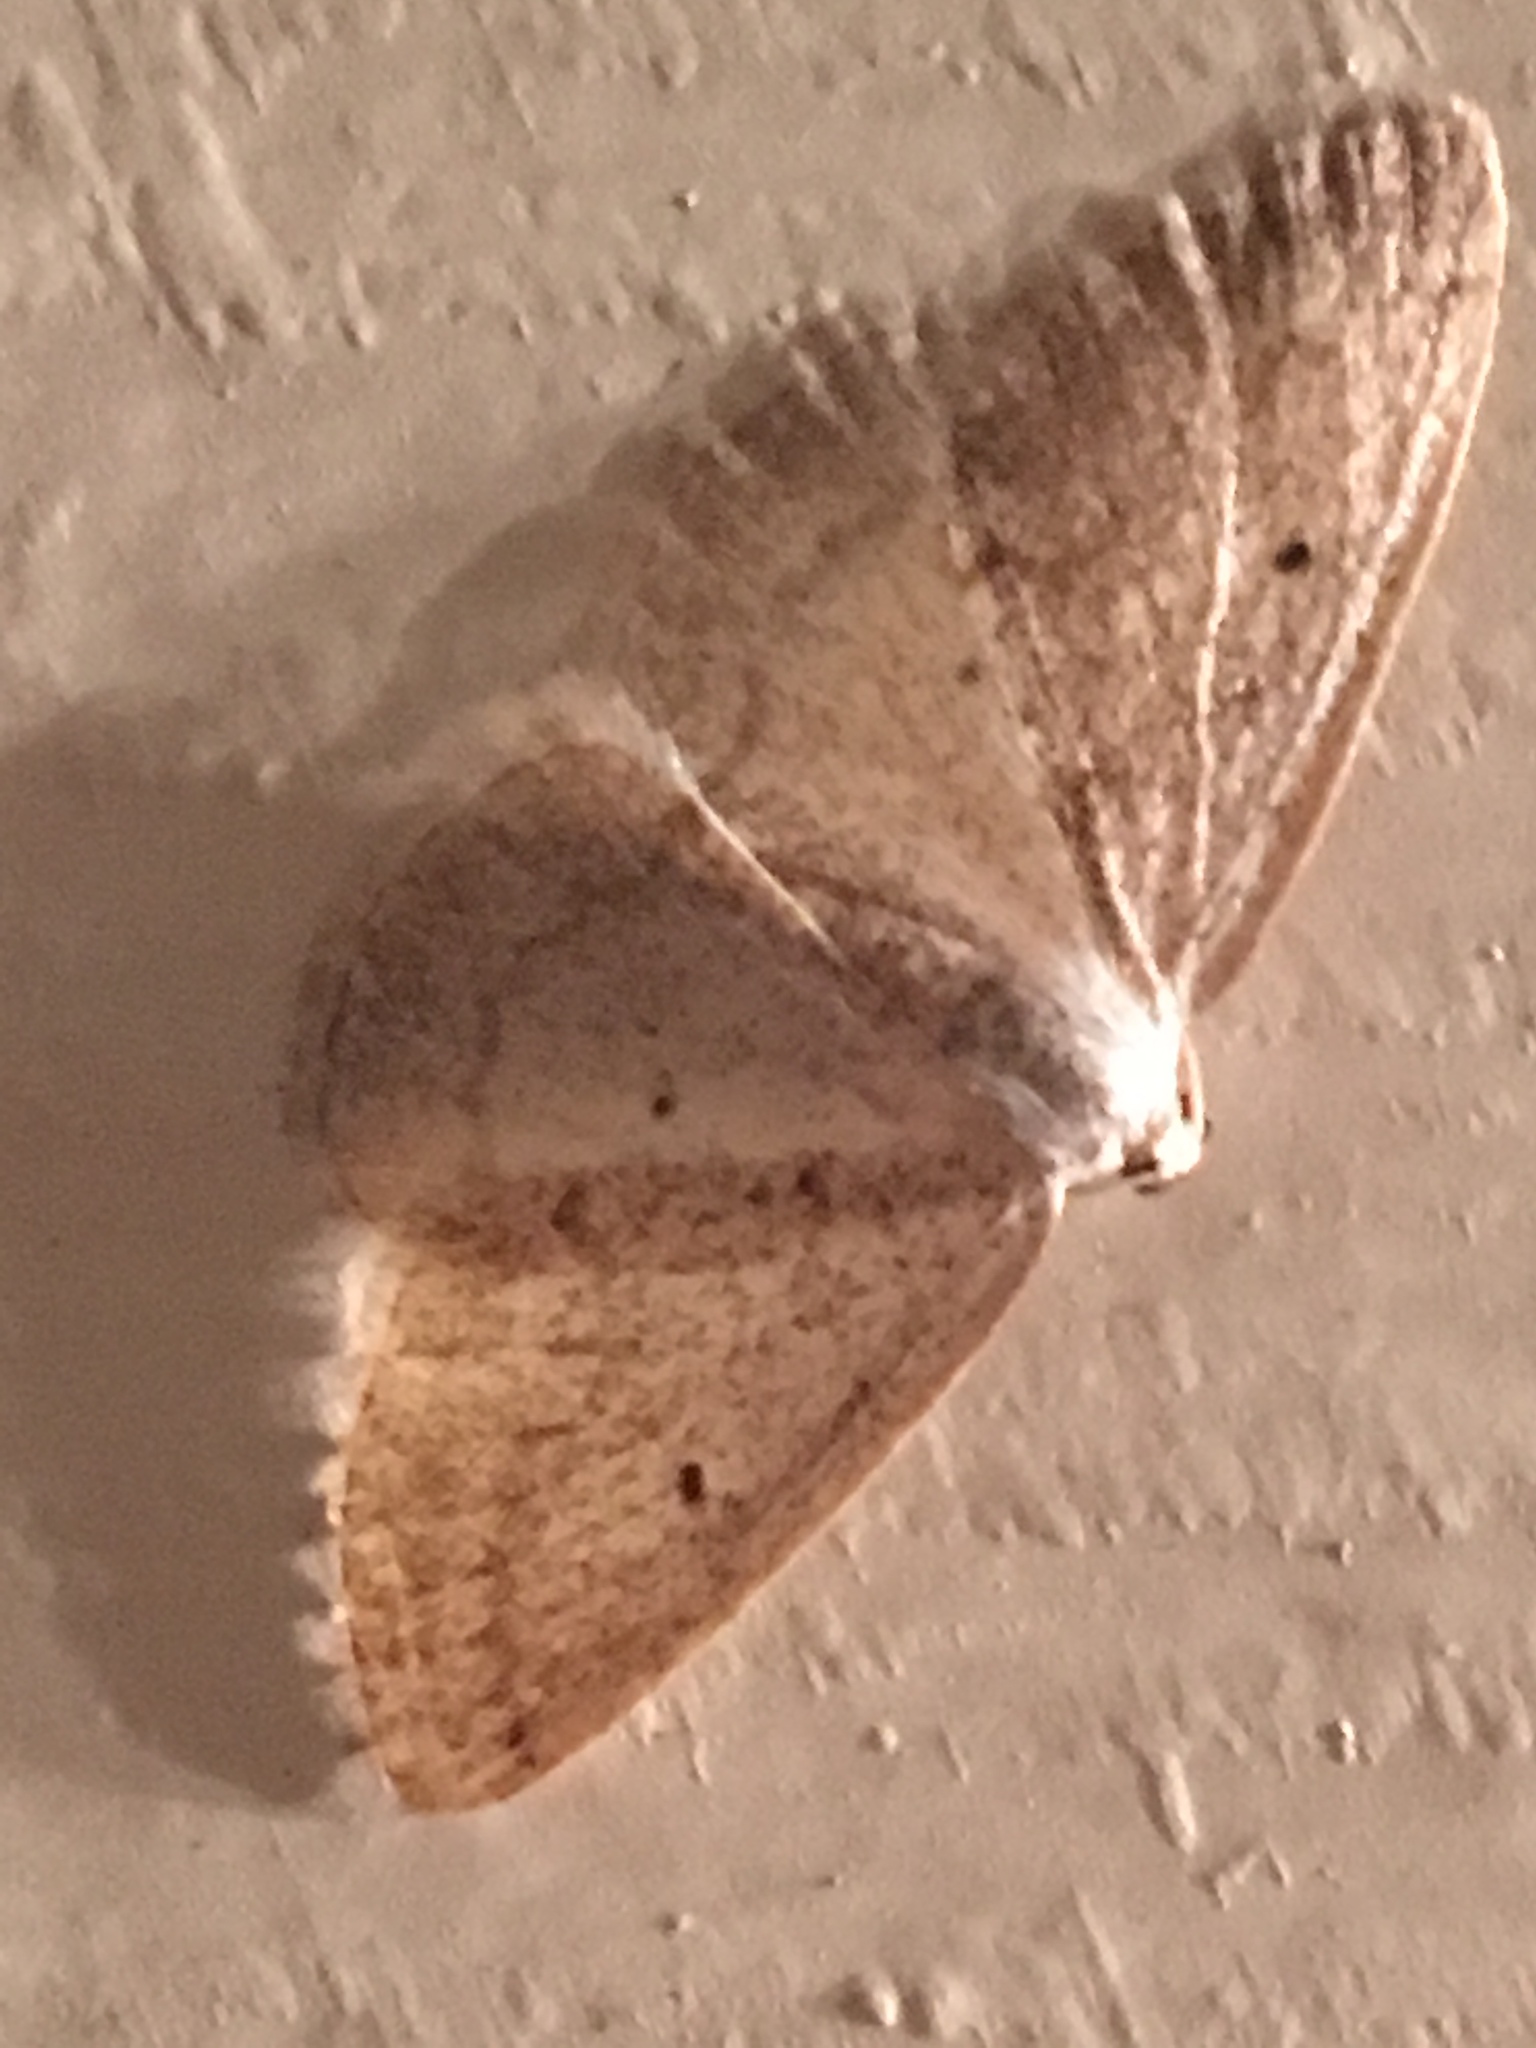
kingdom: Animalia
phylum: Arthropoda
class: Insecta
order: Lepidoptera
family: Geometridae
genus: Lomographa
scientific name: Lomographa glomeraria
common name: Gray spring moth
